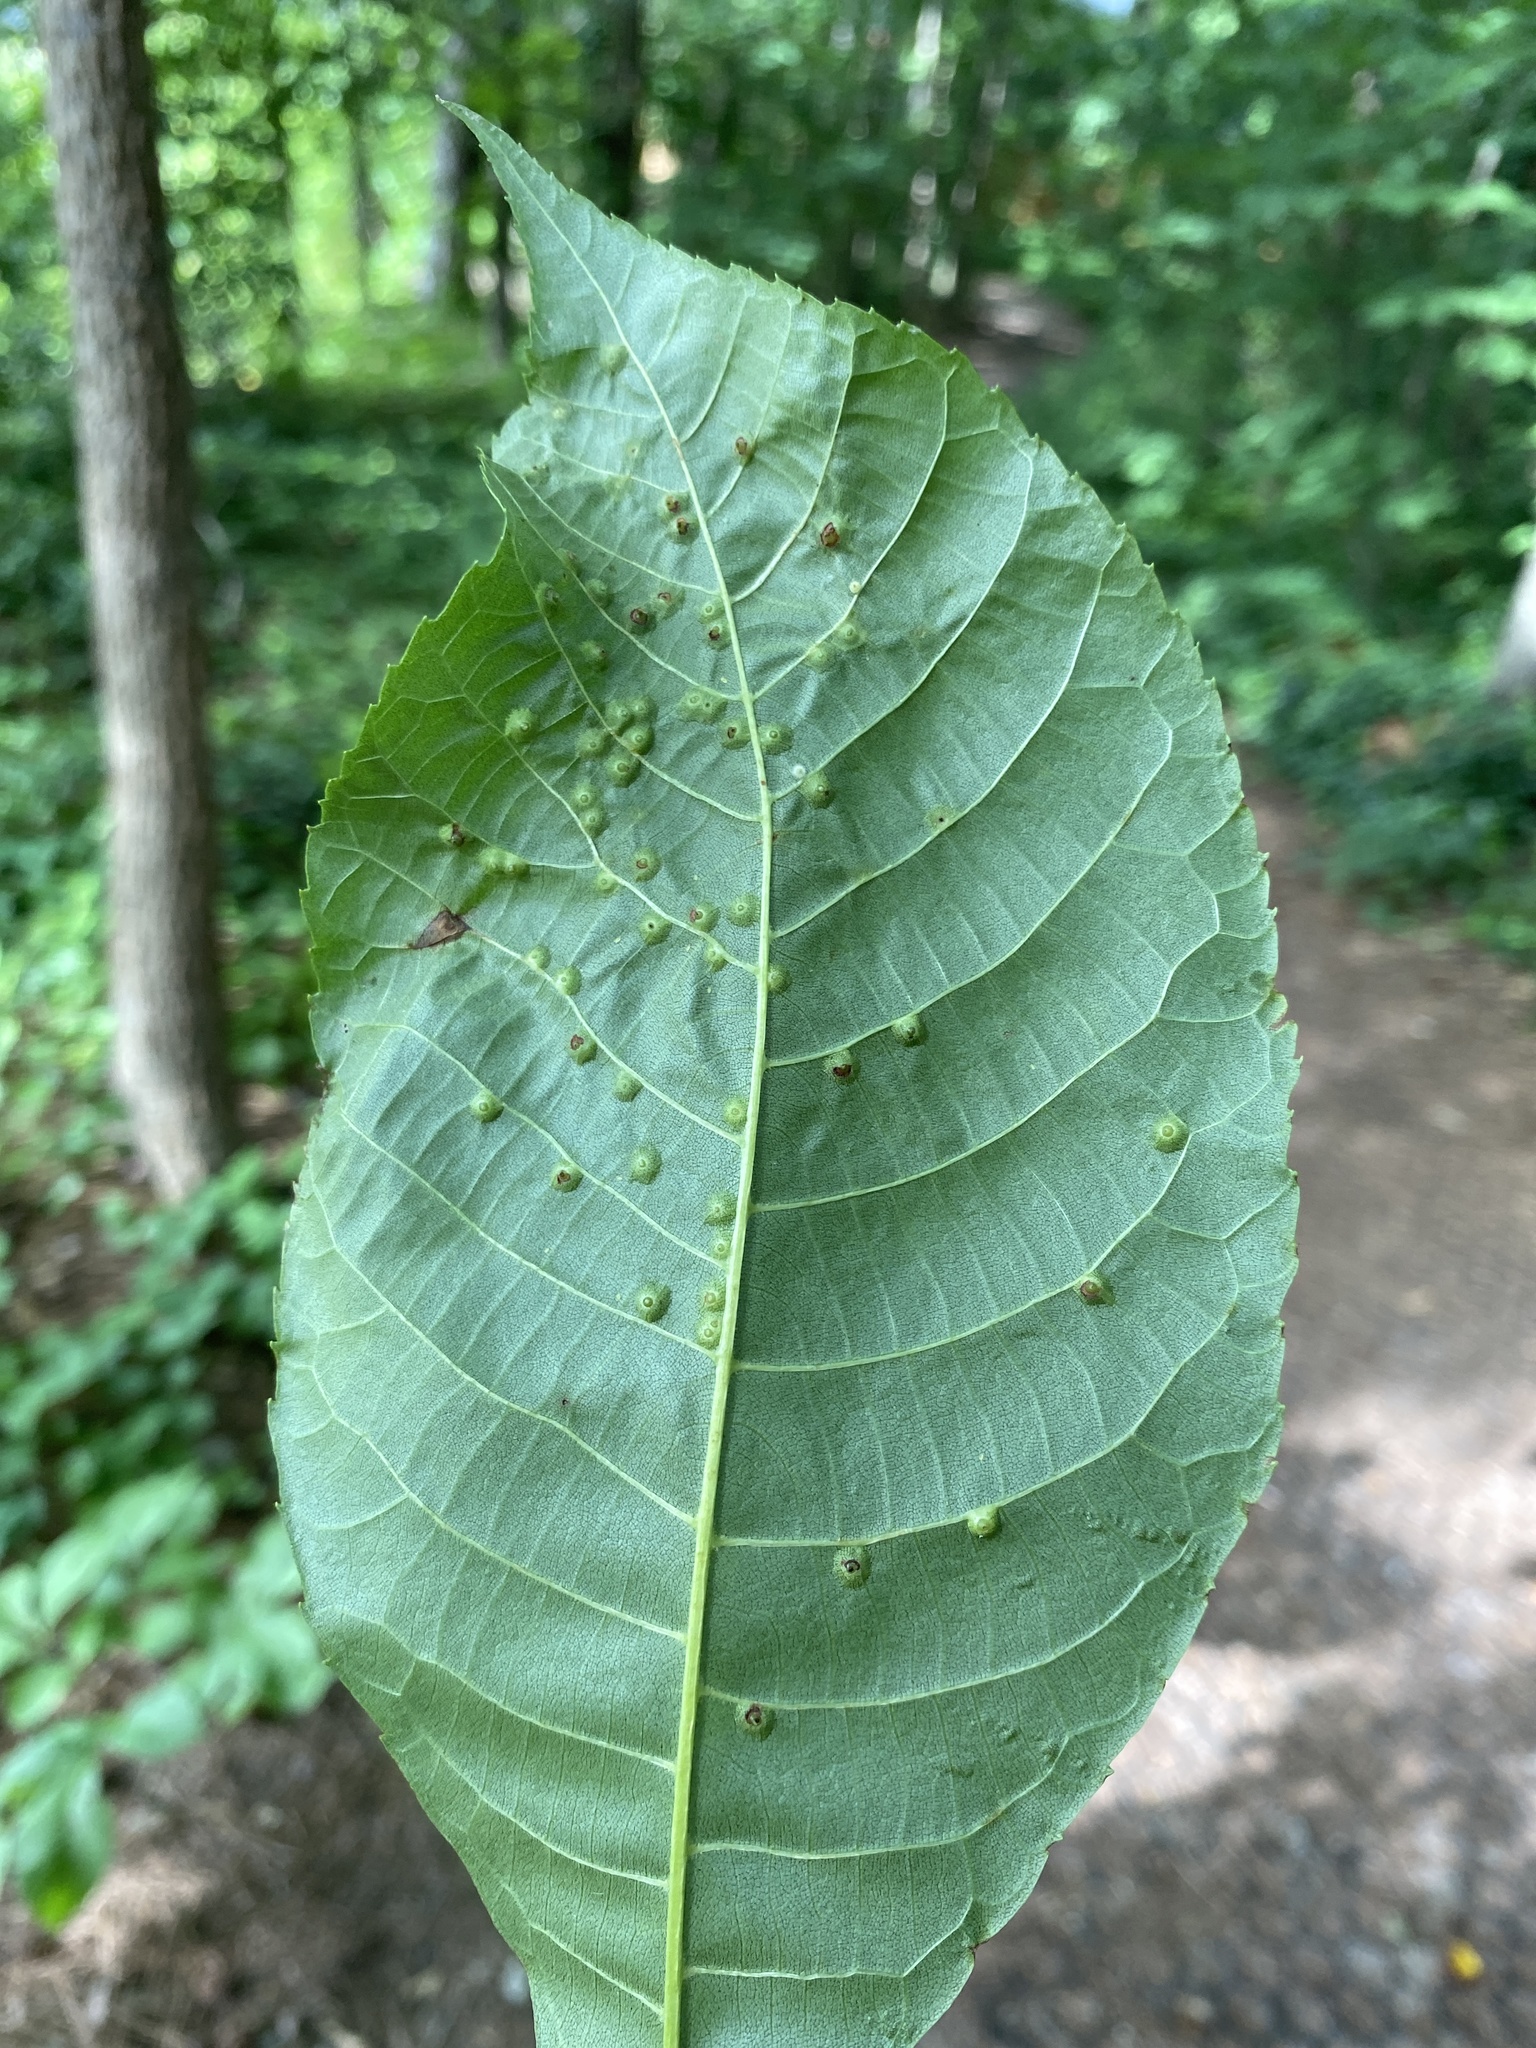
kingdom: Animalia
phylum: Arthropoda
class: Insecta
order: Diptera
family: Cecidomyiidae
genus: Caryomyia
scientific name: Caryomyia tubicola
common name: Hickory bullet gall midge
